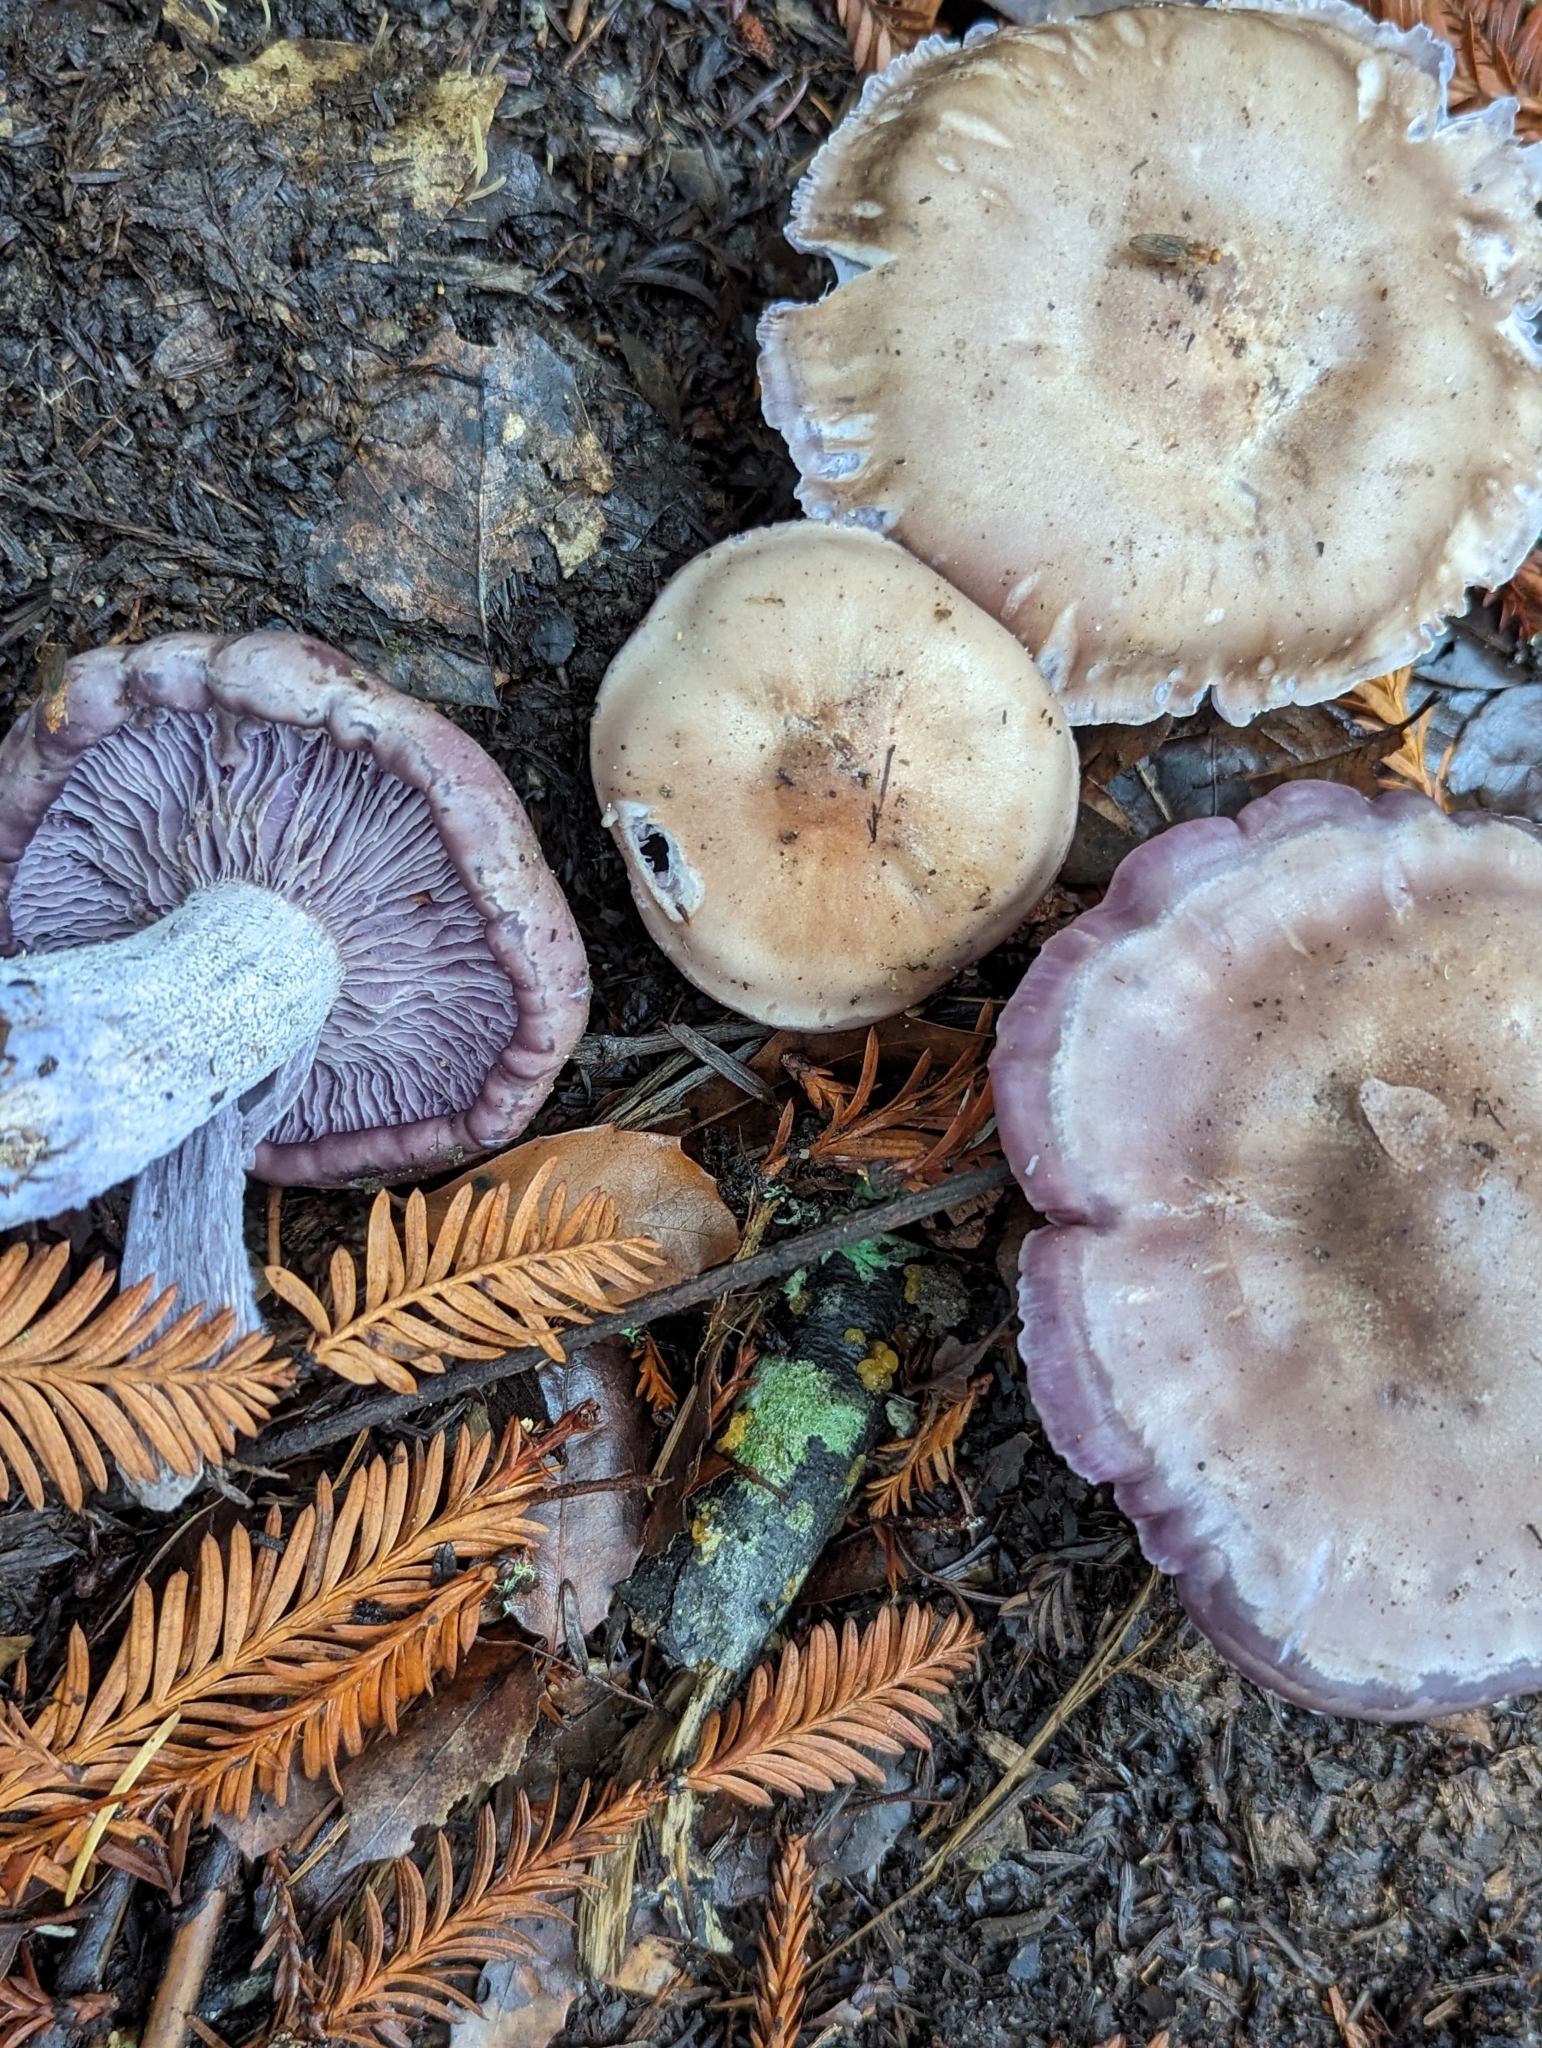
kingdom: Fungi
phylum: Basidiomycota
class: Agaricomycetes
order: Agaricales
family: Tricholomataceae
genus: Collybia
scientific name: Collybia
